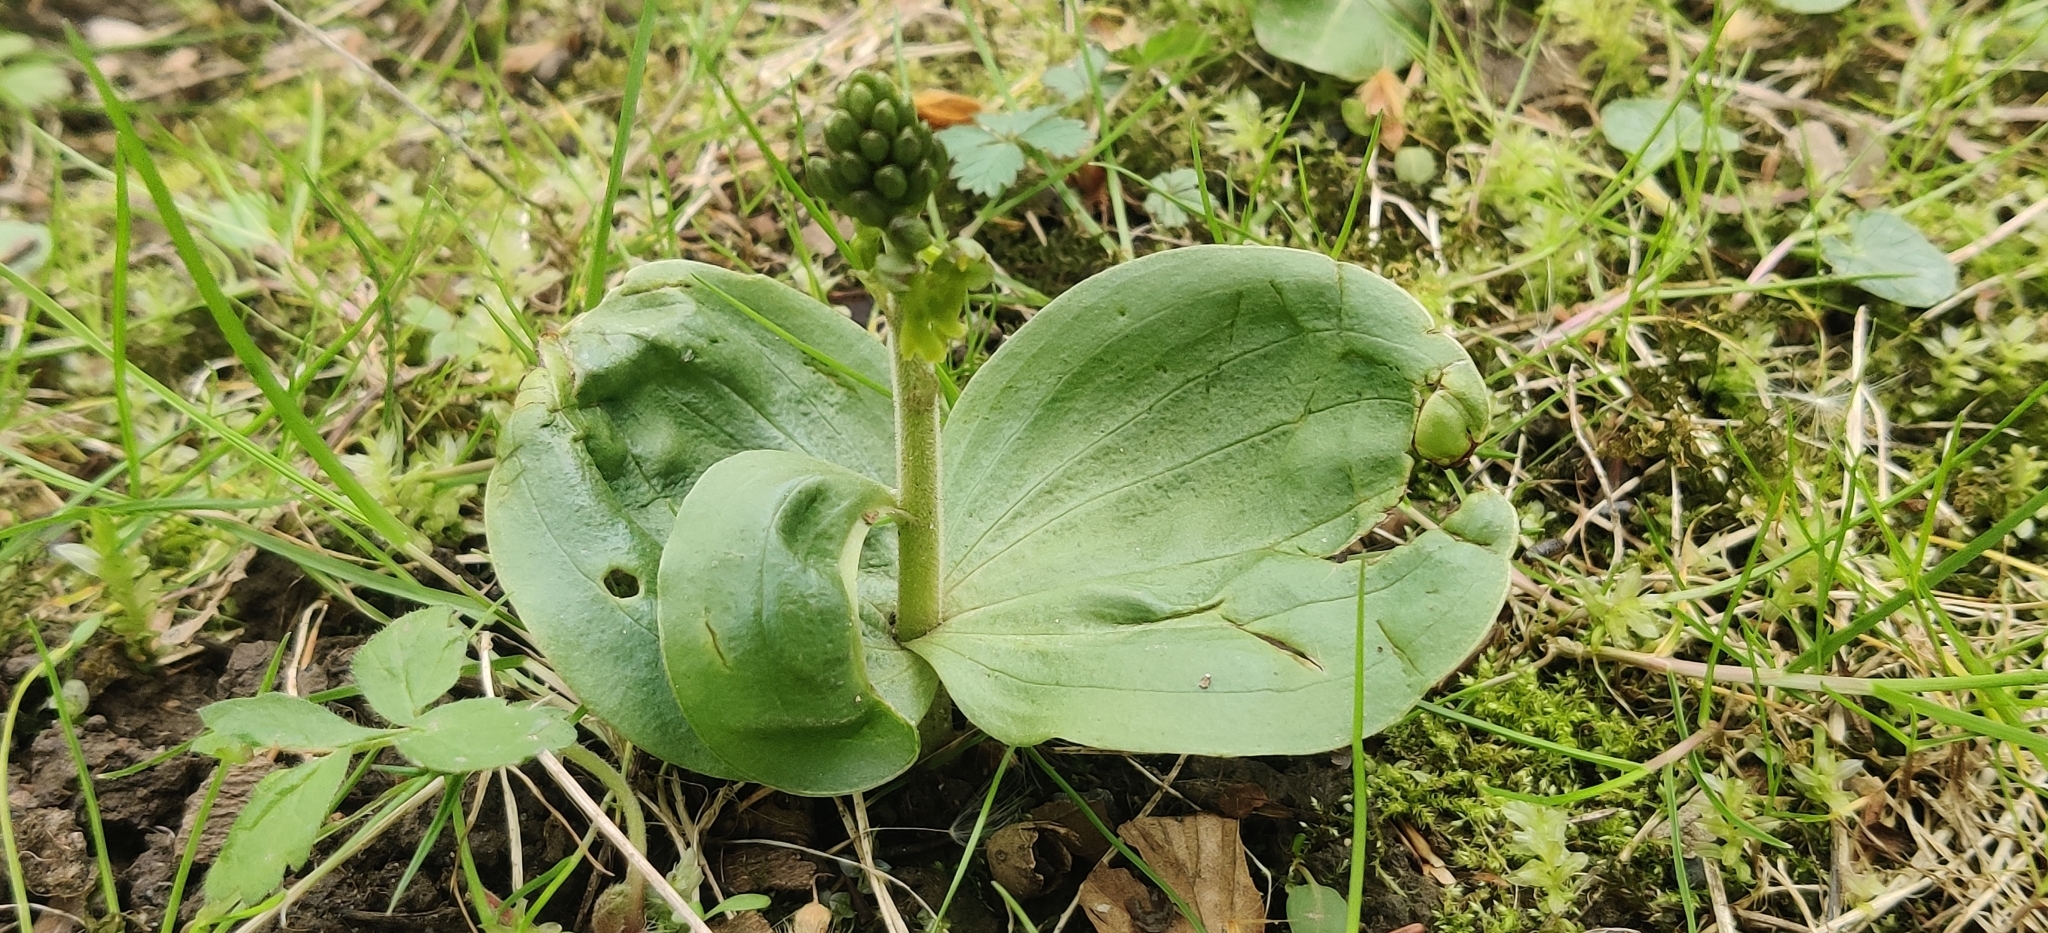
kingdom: Plantae
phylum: Tracheophyta
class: Liliopsida
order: Asparagales
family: Orchidaceae
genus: Neottia
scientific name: Neottia ovata
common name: Common twayblade
